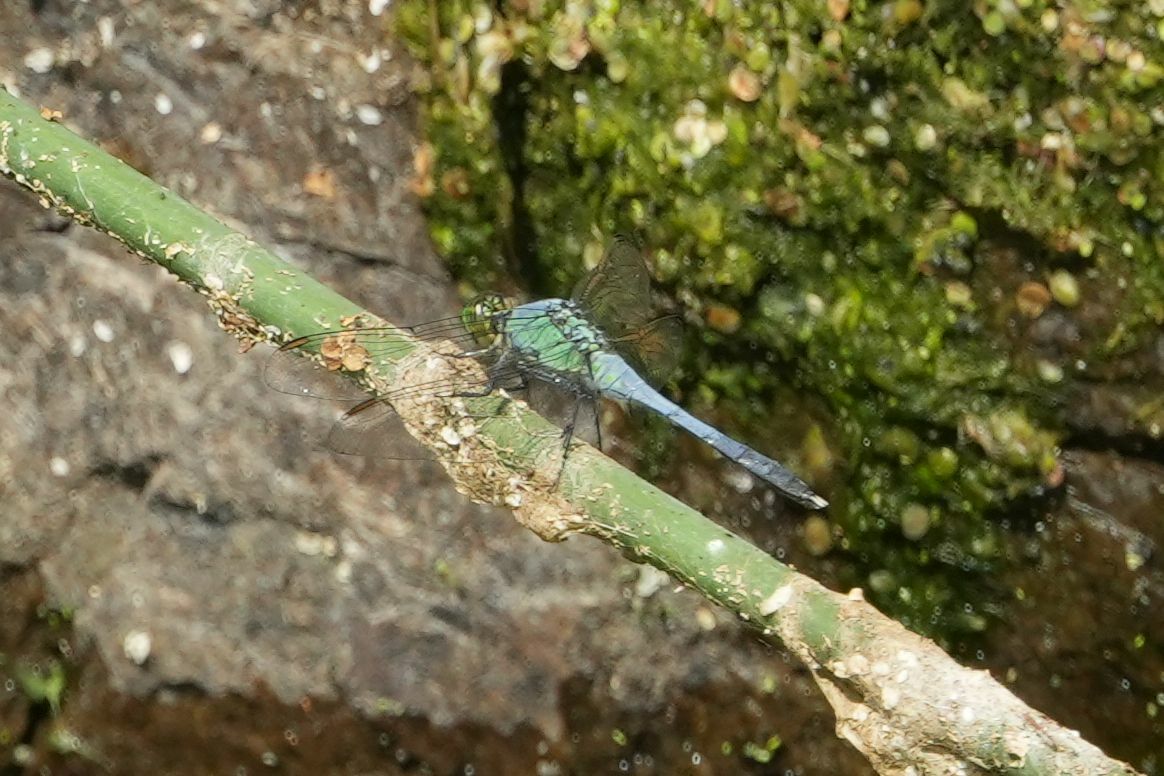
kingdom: Animalia
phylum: Arthropoda
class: Insecta
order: Odonata
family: Libellulidae
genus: Erythemis
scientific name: Erythemis simplicicollis
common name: Eastern pondhawk
